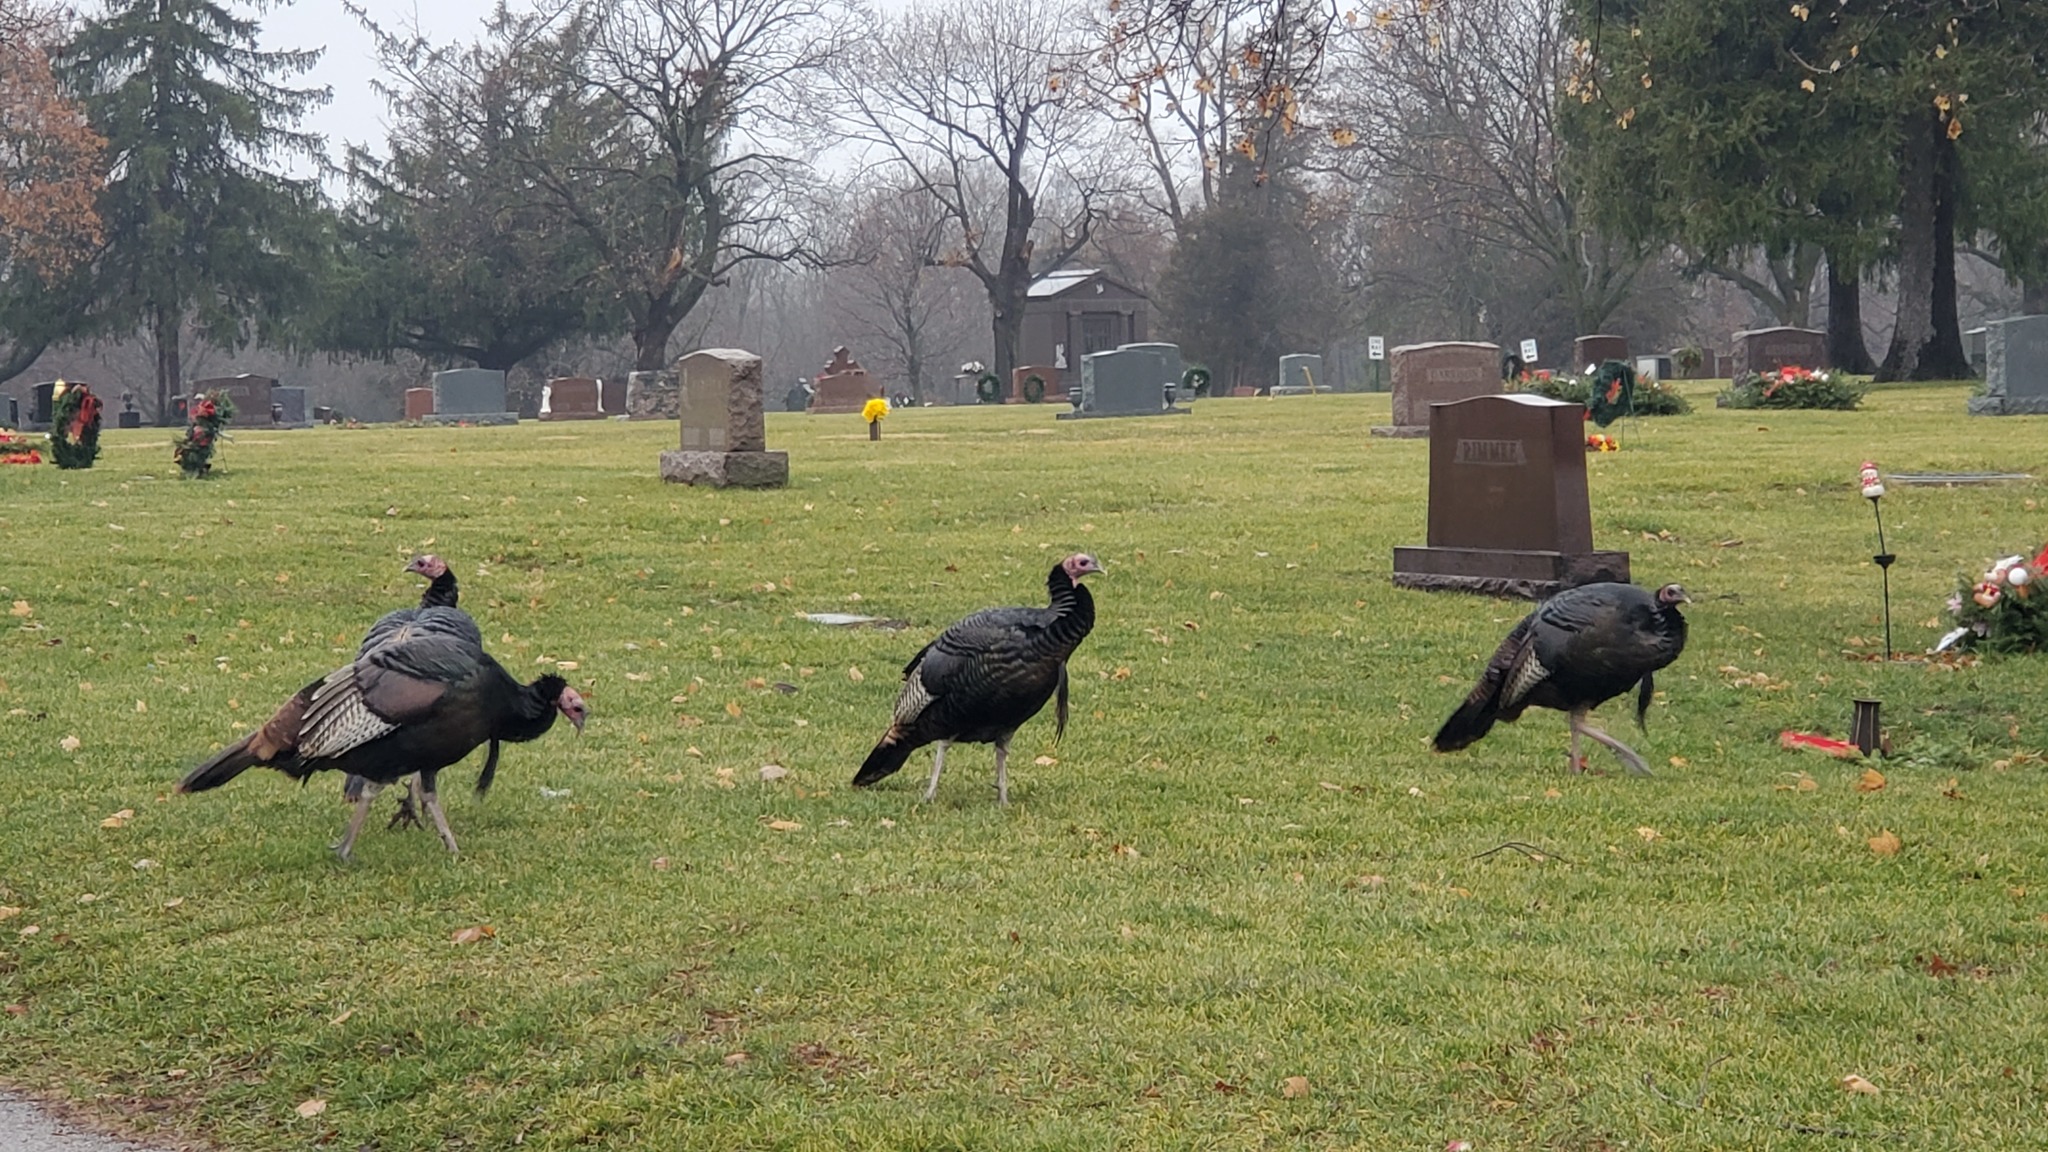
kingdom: Animalia
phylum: Chordata
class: Aves
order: Galliformes
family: Phasianidae
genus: Meleagris
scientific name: Meleagris gallopavo
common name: Wild turkey
